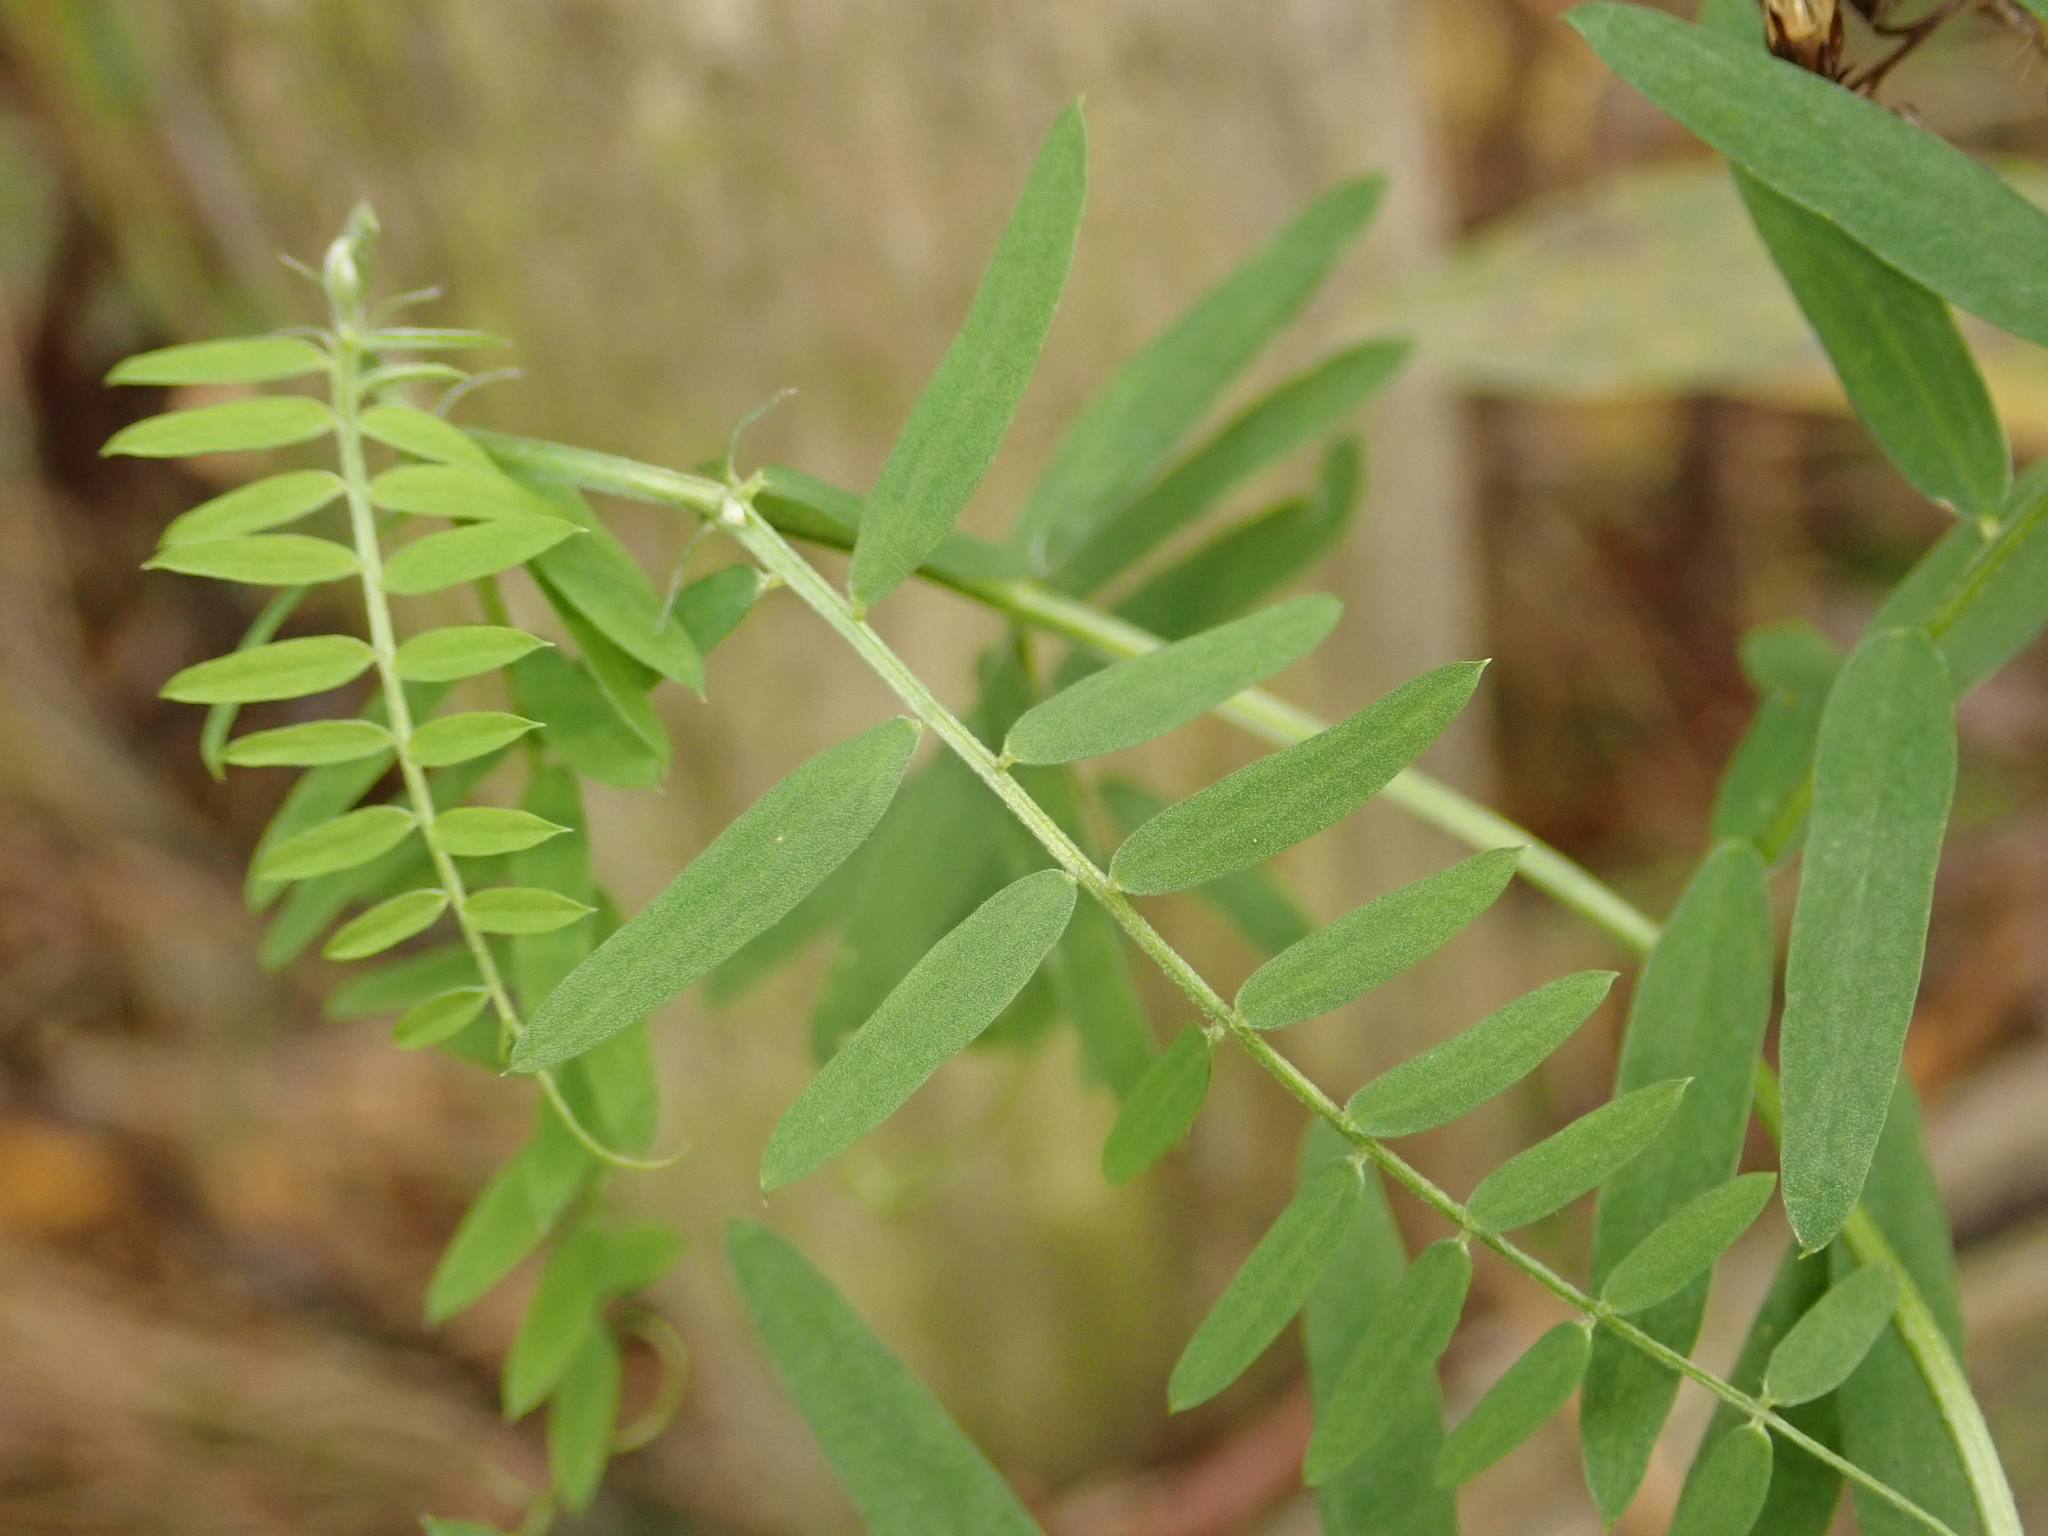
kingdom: Plantae
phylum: Tracheophyta
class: Magnoliopsida
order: Fabales
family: Fabaceae
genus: Vicia
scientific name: Vicia cracca
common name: Bird vetch
